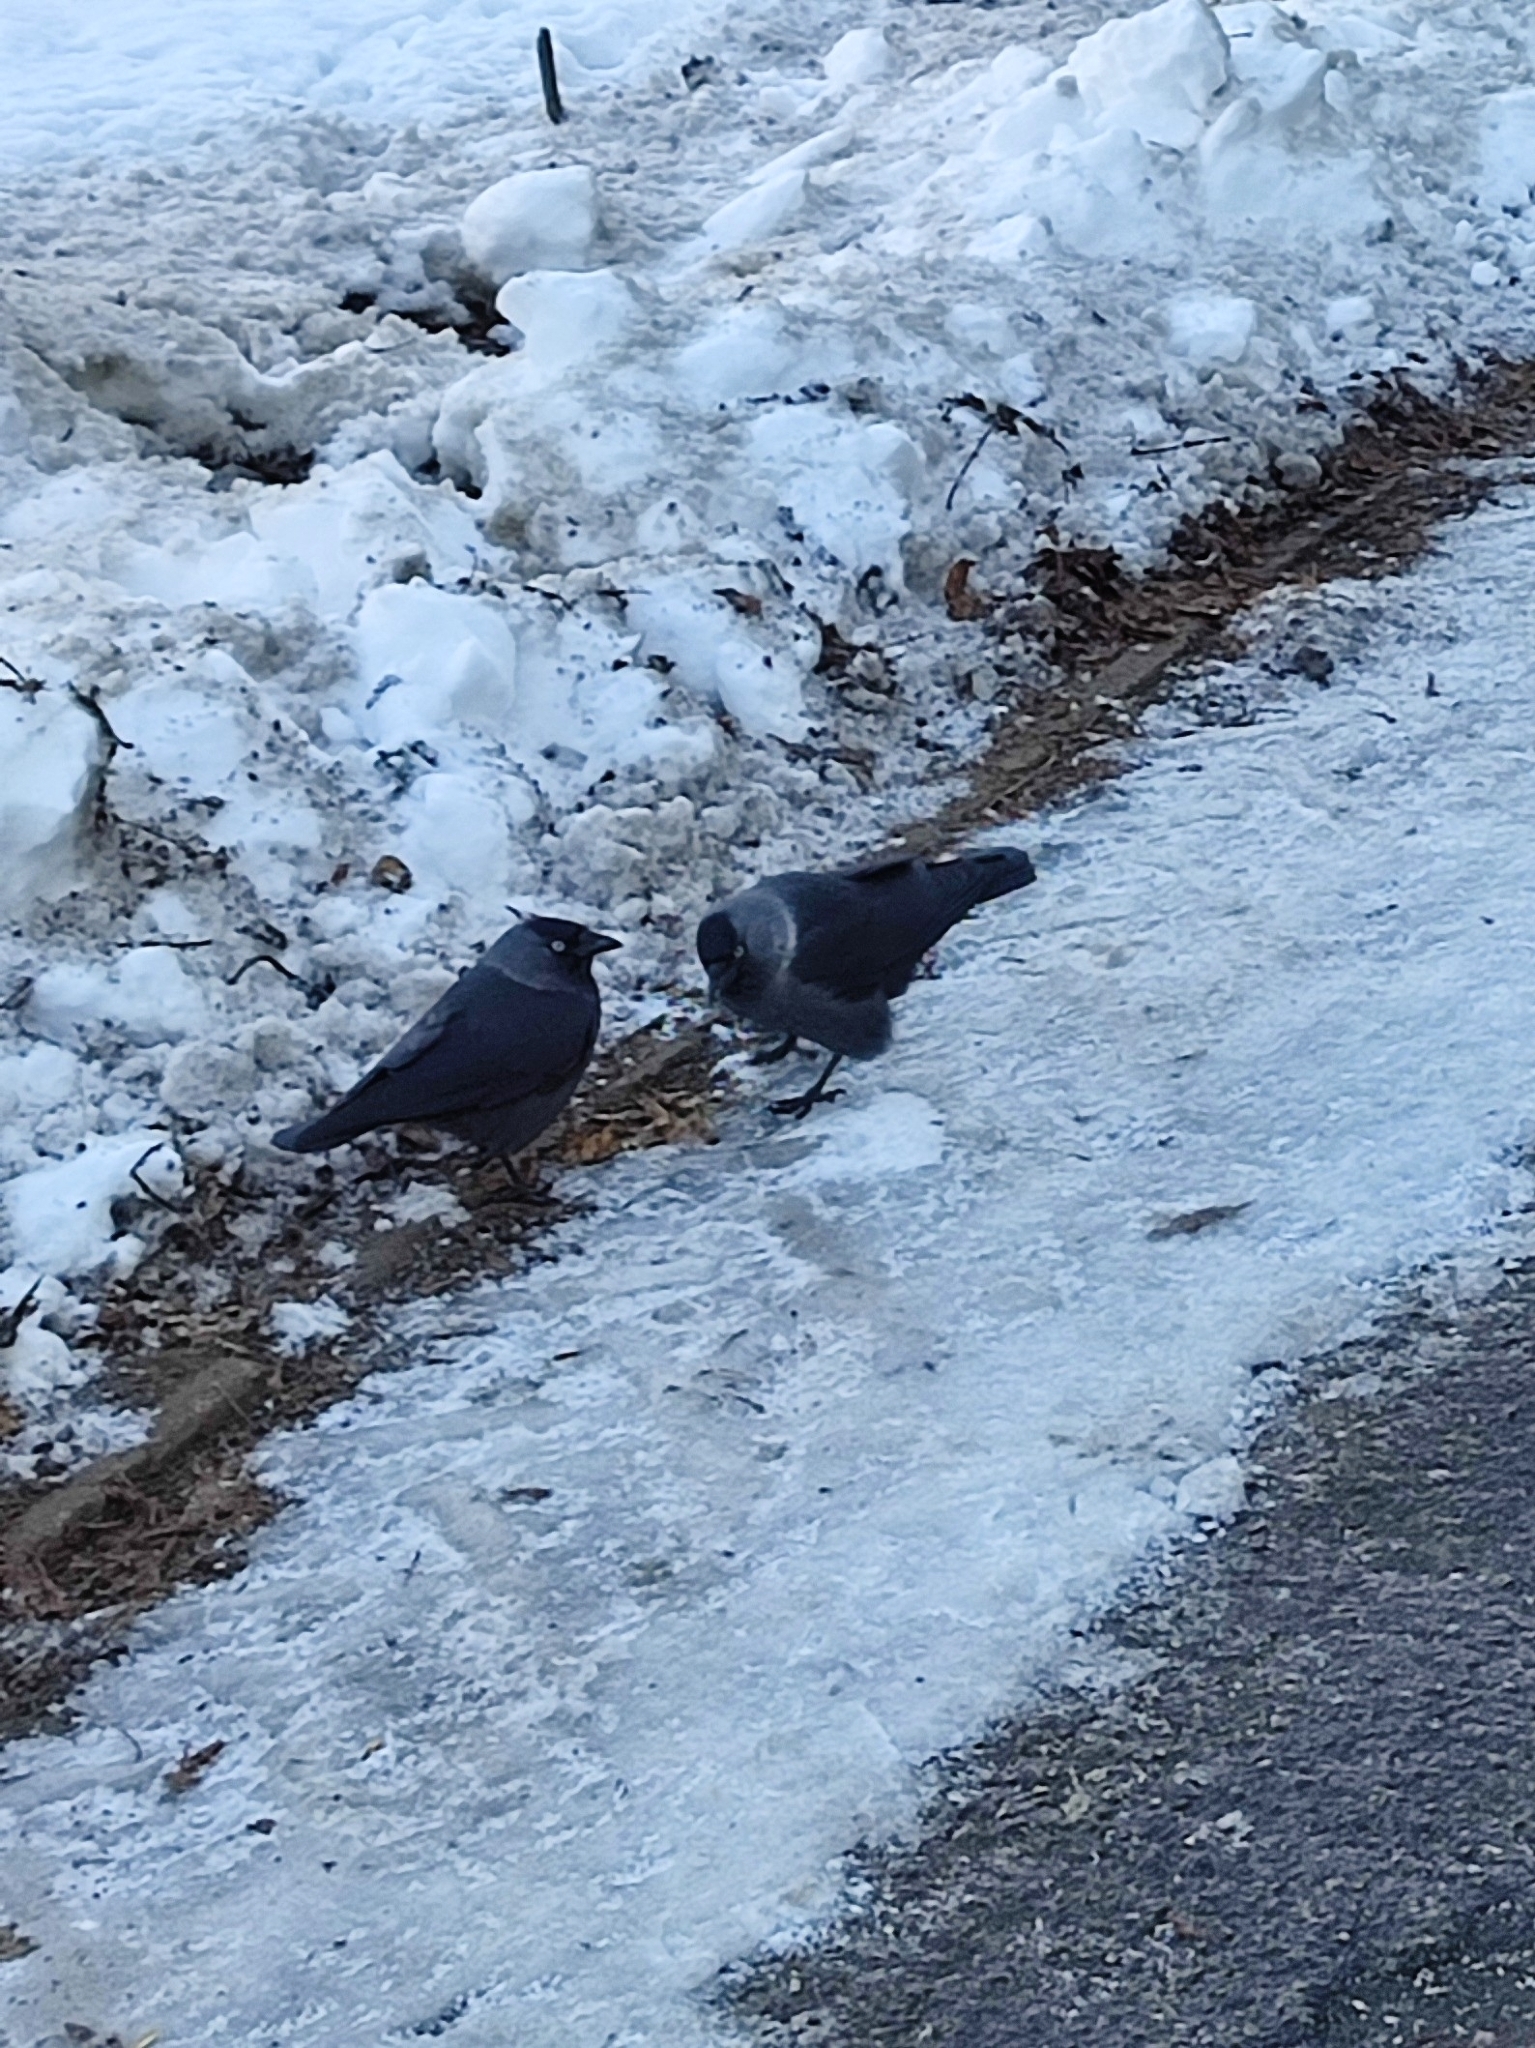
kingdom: Animalia
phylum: Chordata
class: Aves
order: Passeriformes
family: Corvidae
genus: Coloeus
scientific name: Coloeus monedula
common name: Western jackdaw
